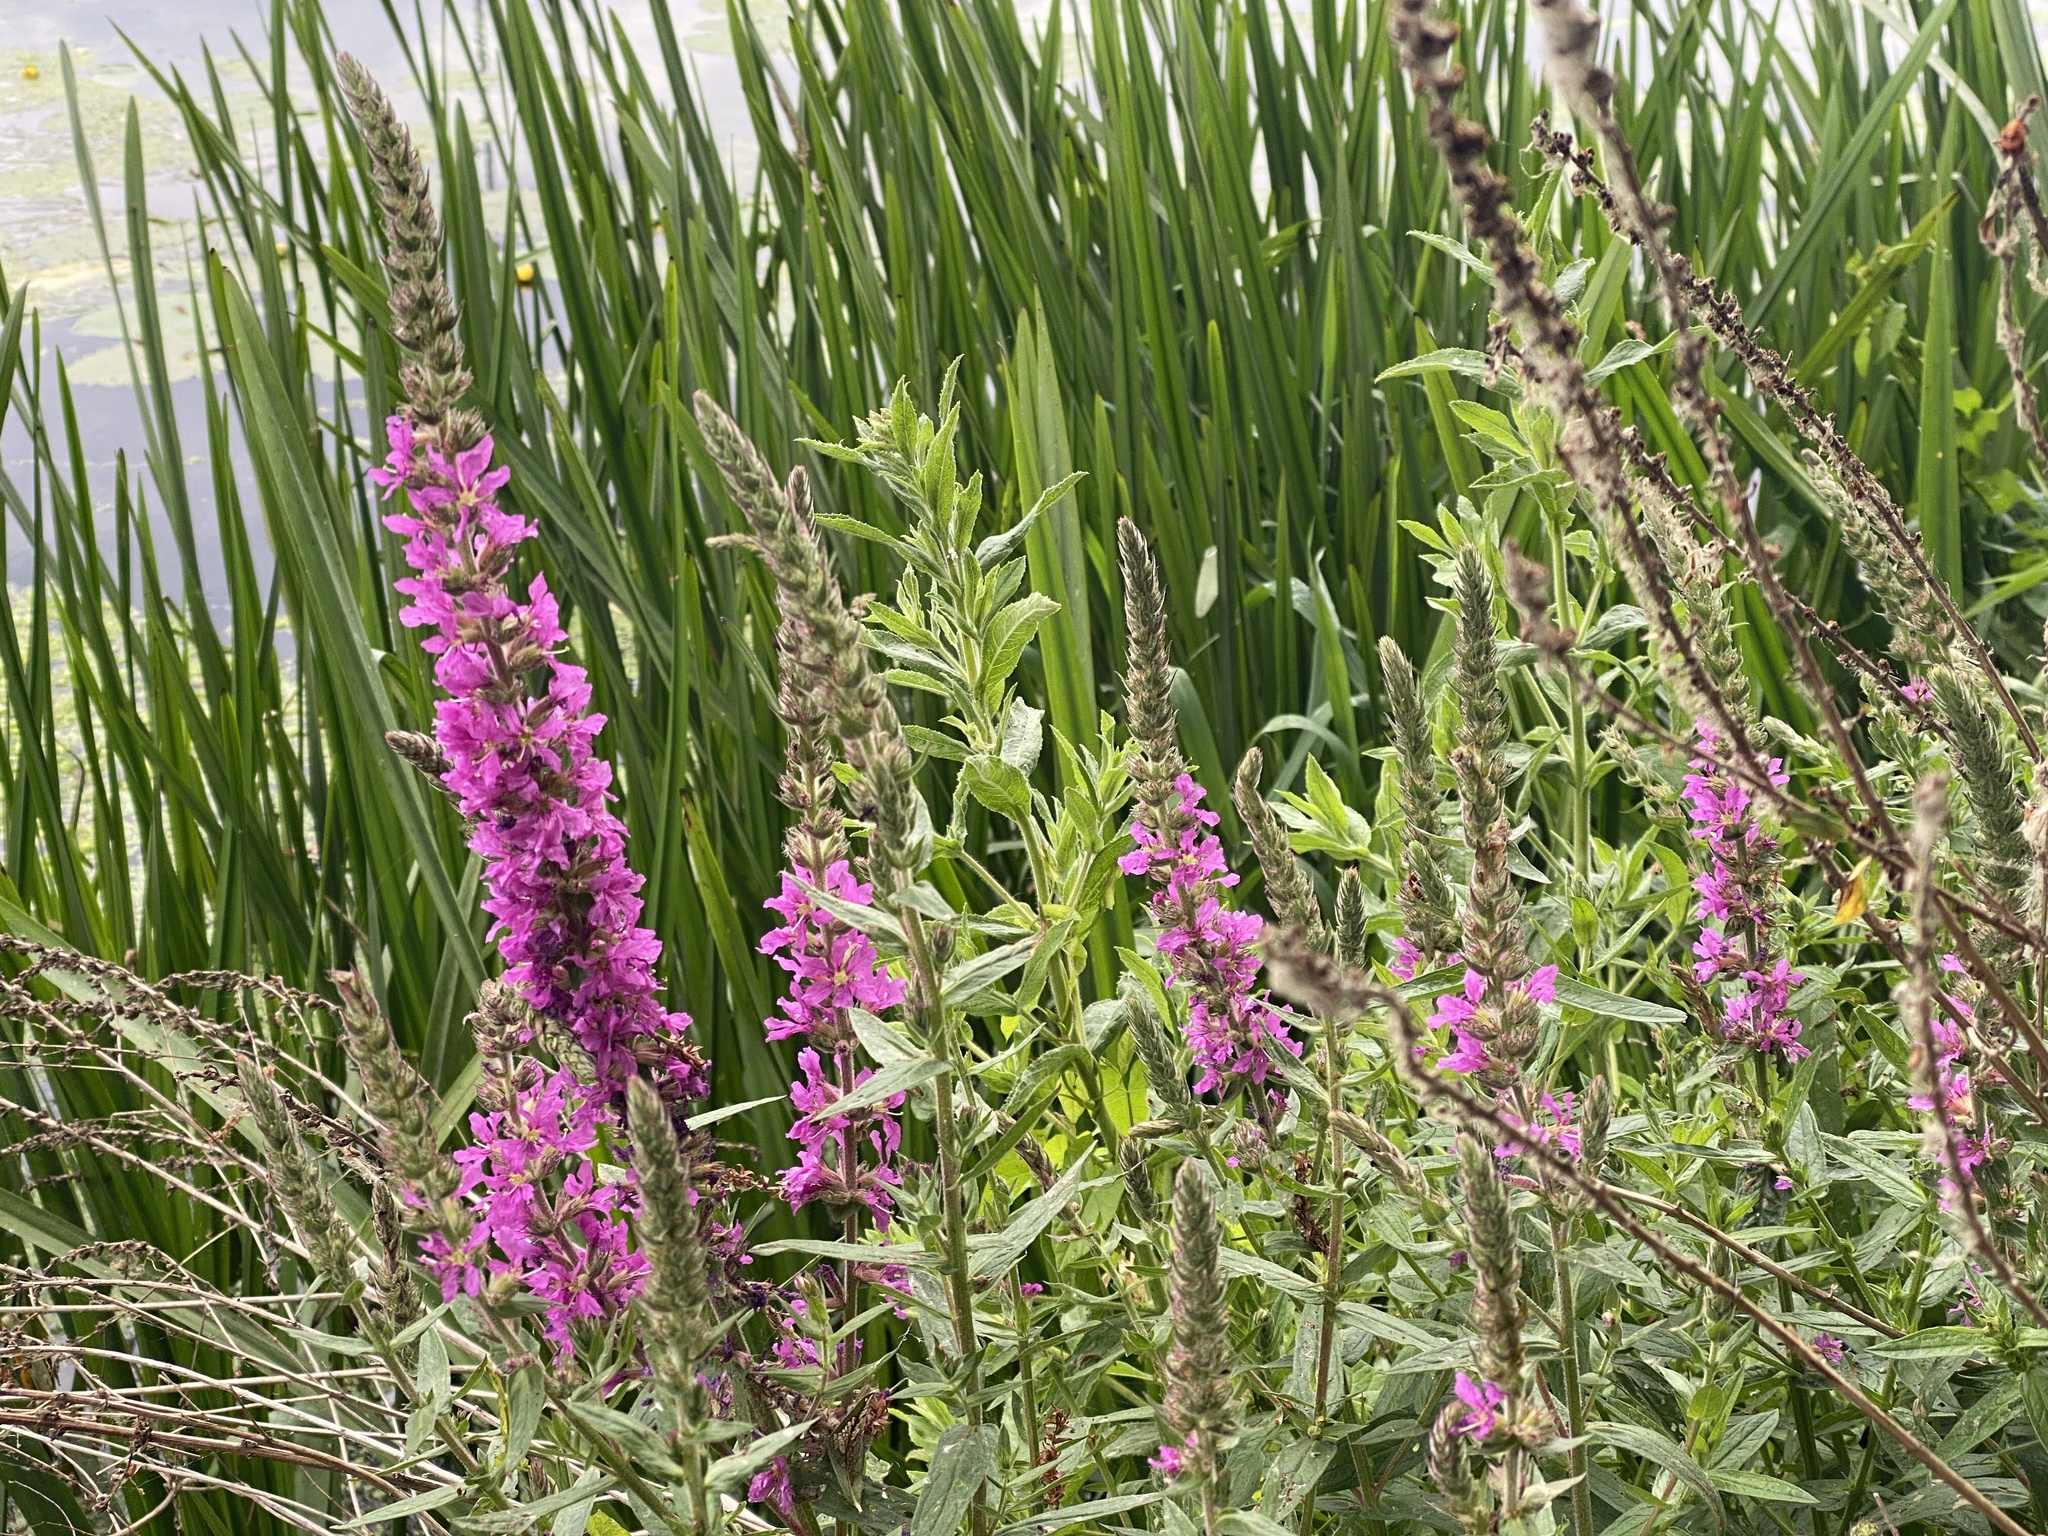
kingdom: Plantae
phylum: Tracheophyta
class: Magnoliopsida
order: Myrtales
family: Lythraceae
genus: Lythrum
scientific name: Lythrum salicaria
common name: Purple loosestrife
